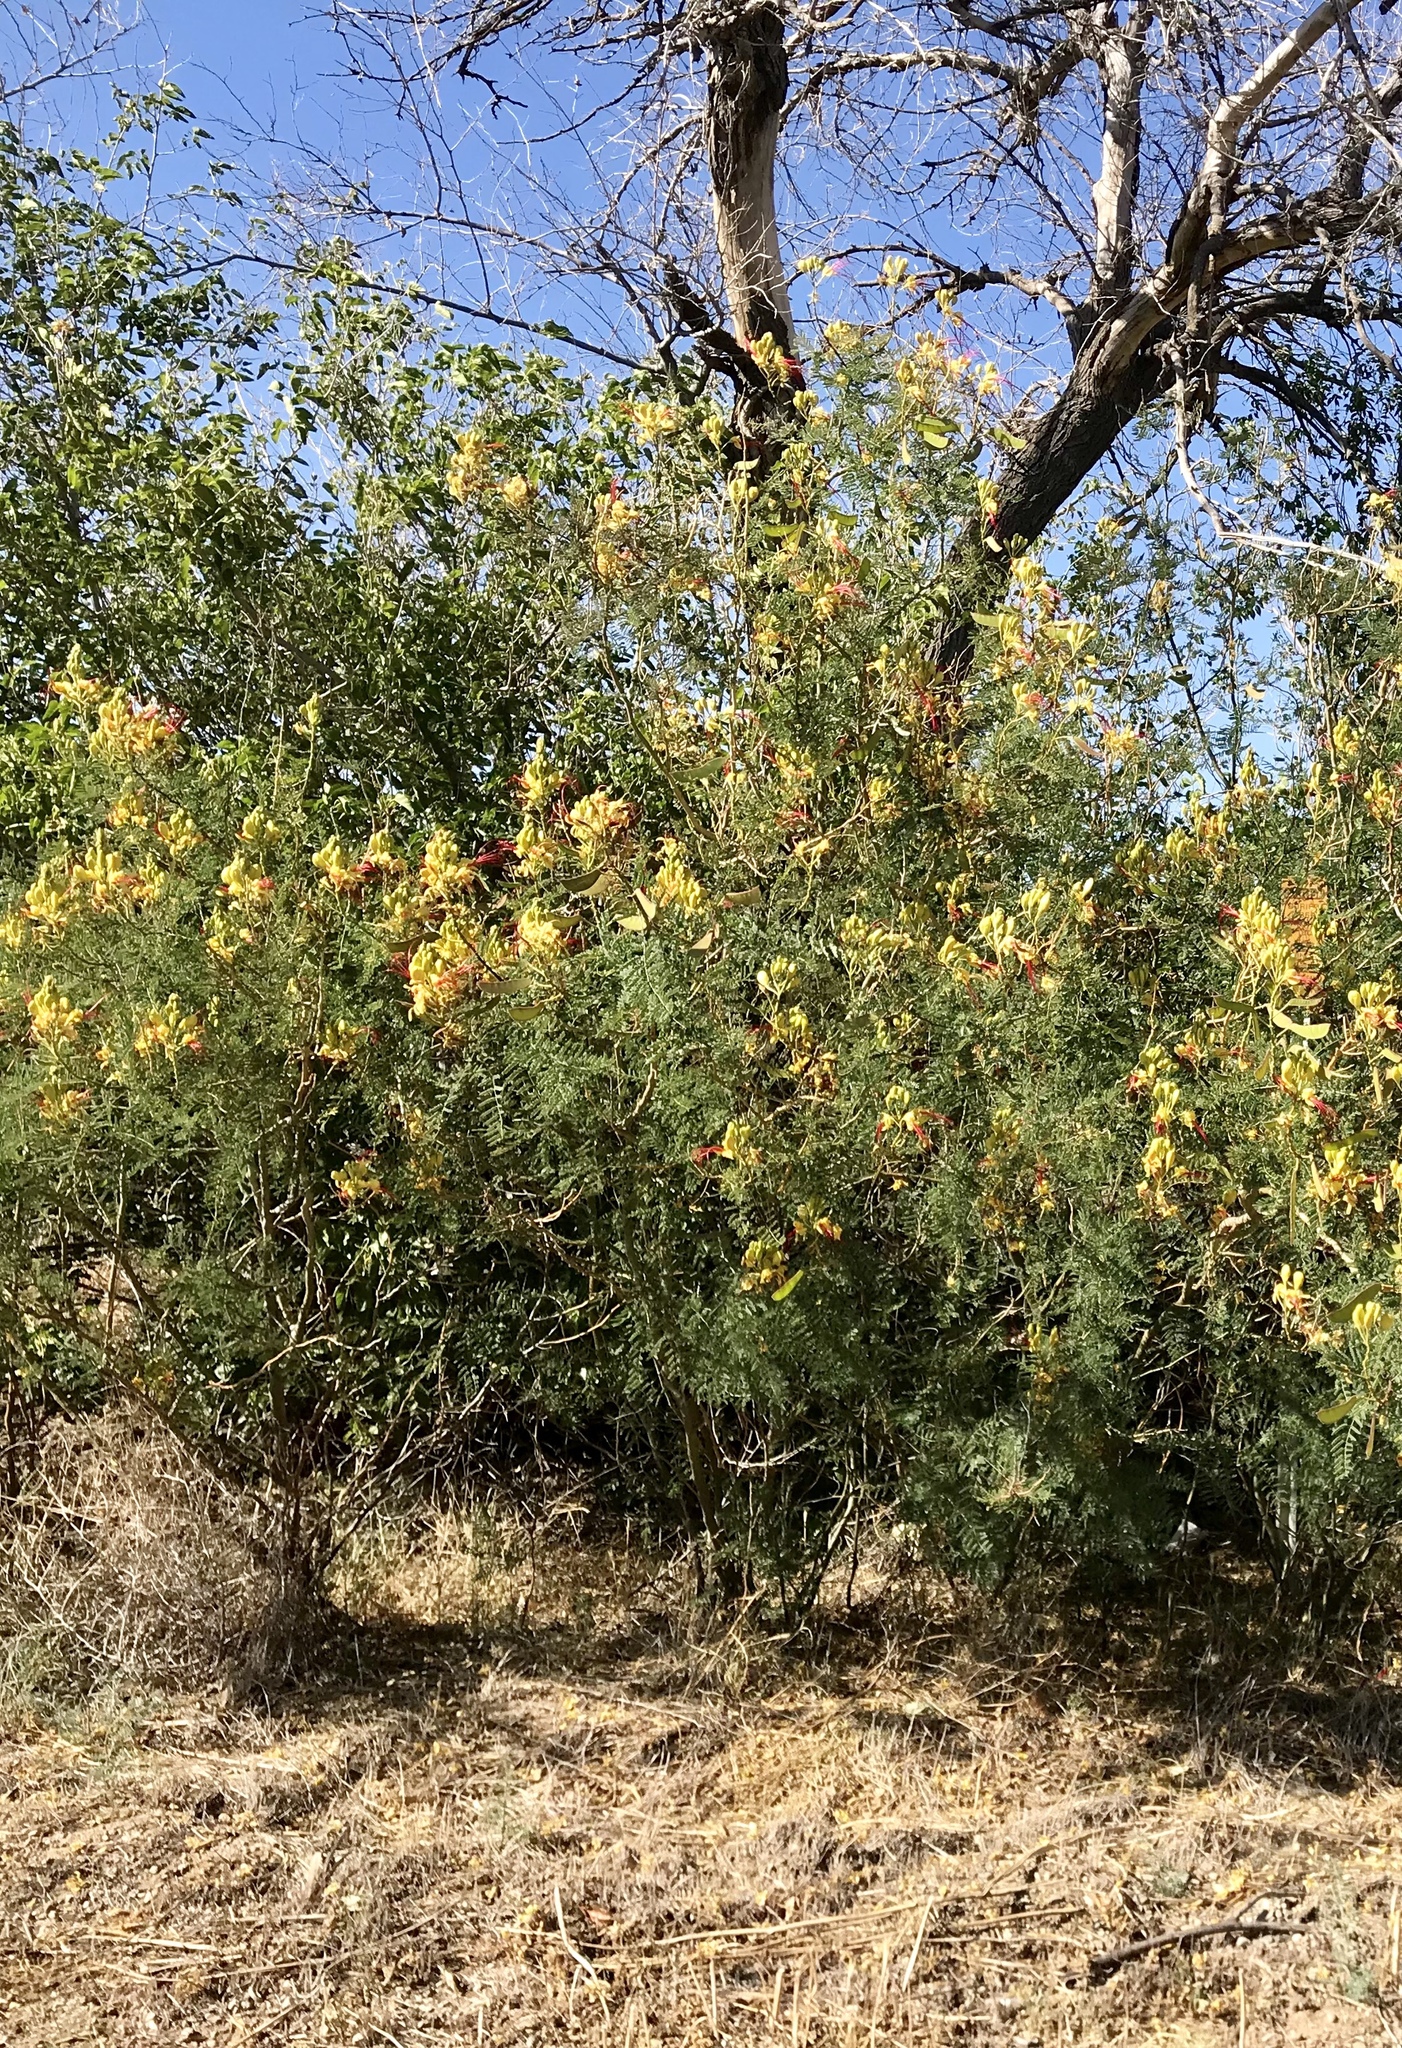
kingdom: Plantae
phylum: Tracheophyta
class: Magnoliopsida
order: Fabales
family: Fabaceae
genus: Erythrostemon
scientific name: Erythrostemon gilliesii
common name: Bird-of-paradise shrub
